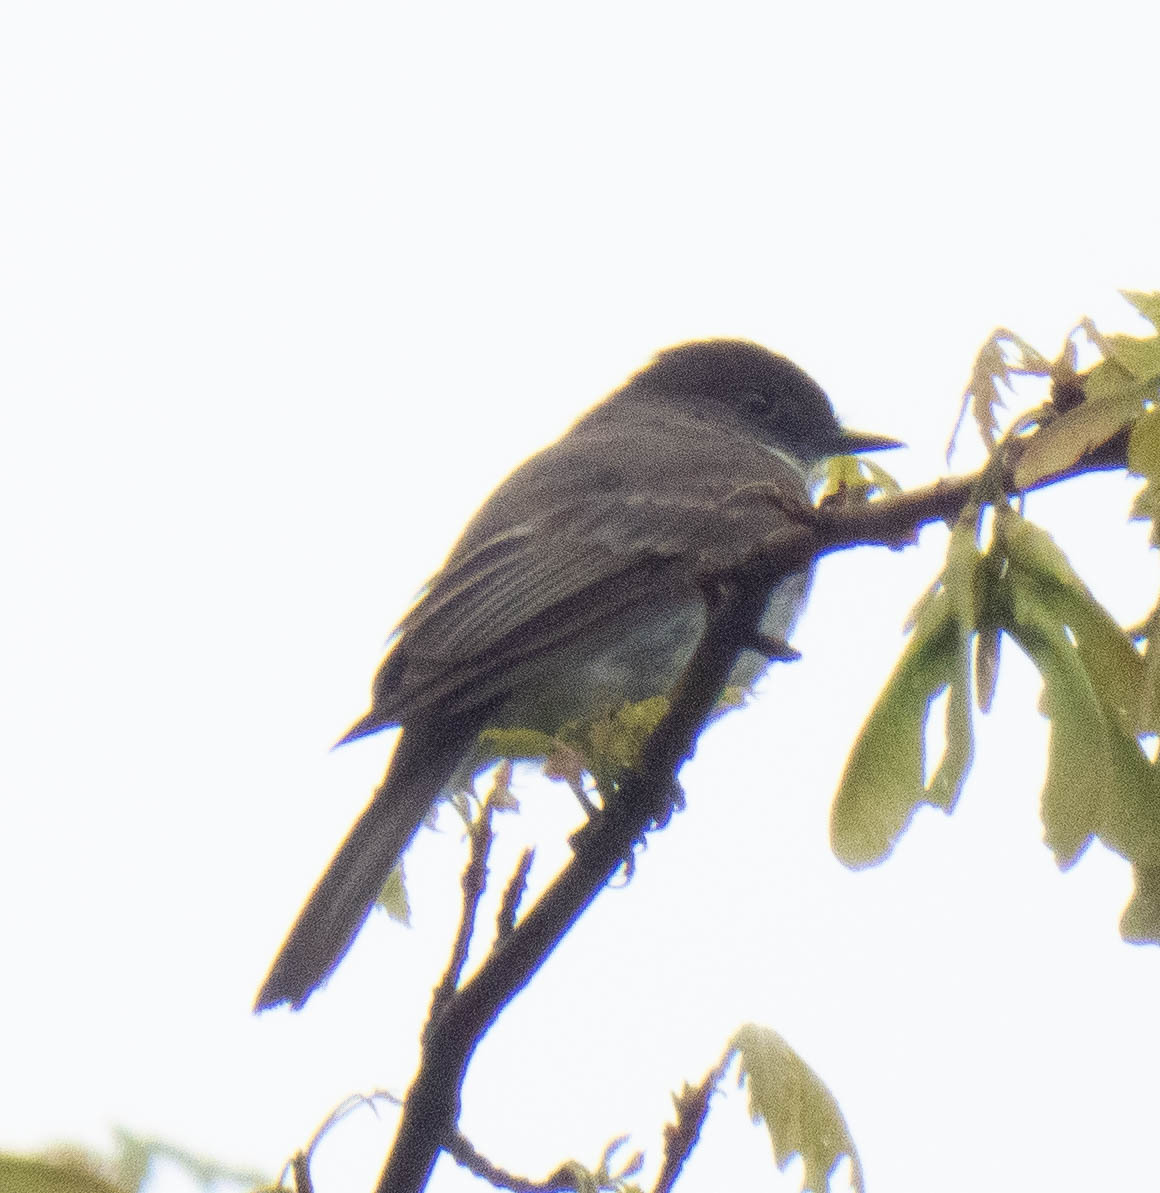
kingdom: Animalia
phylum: Chordata
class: Aves
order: Passeriformes
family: Tyrannidae
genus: Sayornis
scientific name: Sayornis phoebe
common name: Eastern phoebe
